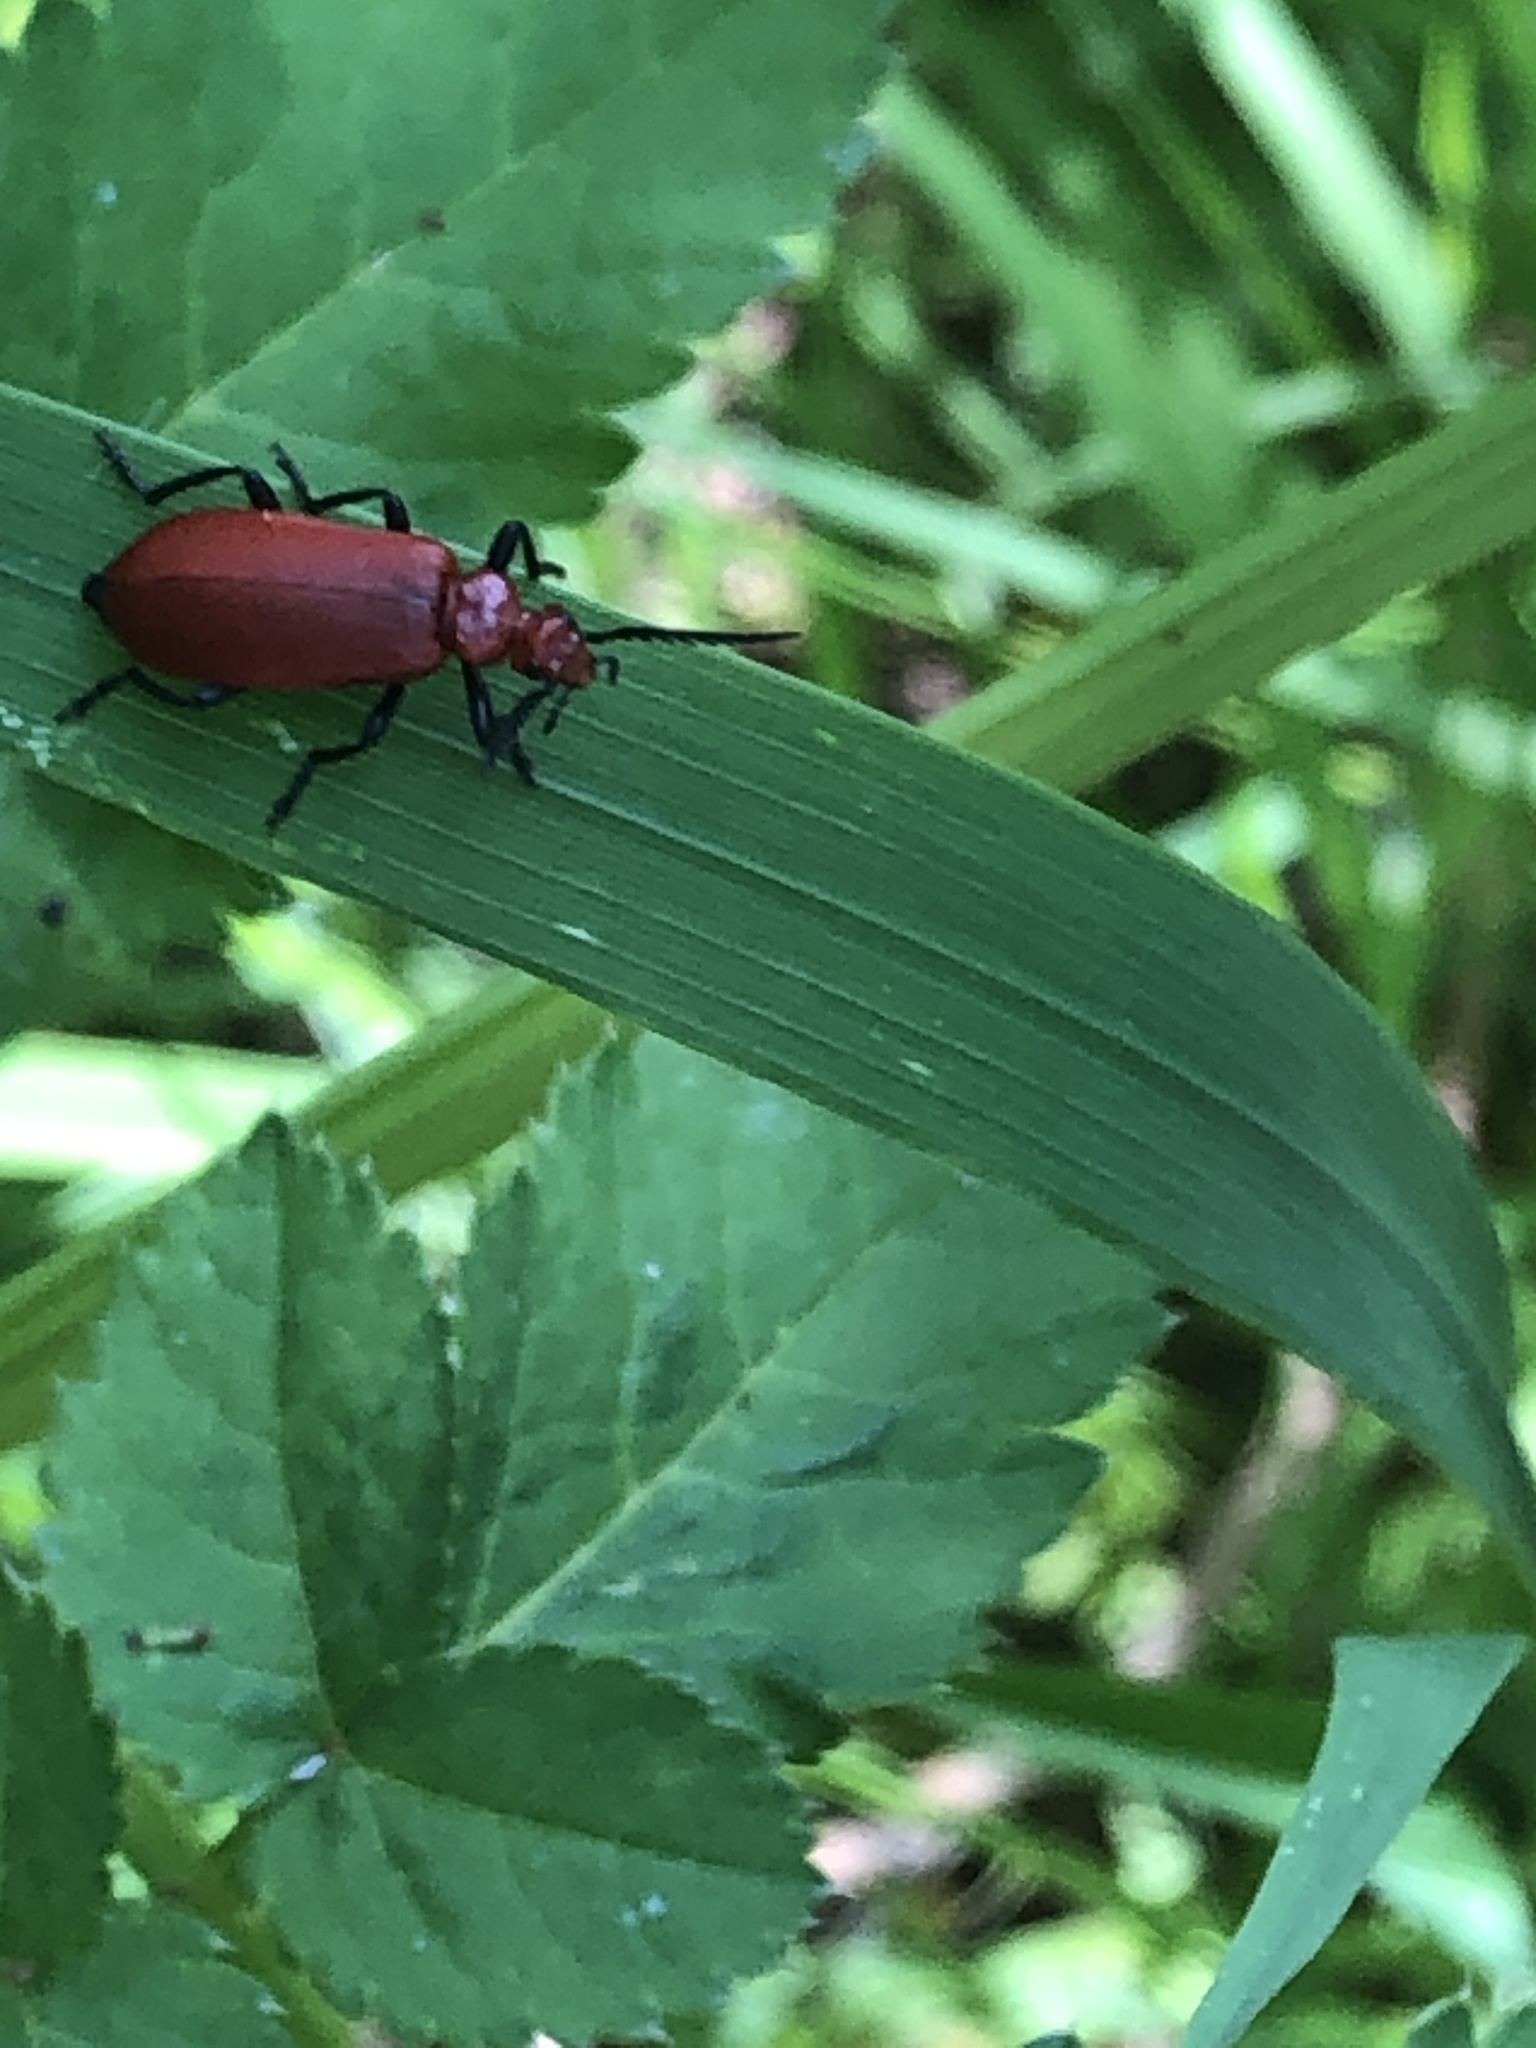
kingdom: Animalia
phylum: Arthropoda
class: Insecta
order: Coleoptera
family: Pyrochroidae
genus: Pyrochroa
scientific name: Pyrochroa serraticornis
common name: Red-headed cardinal beetle
